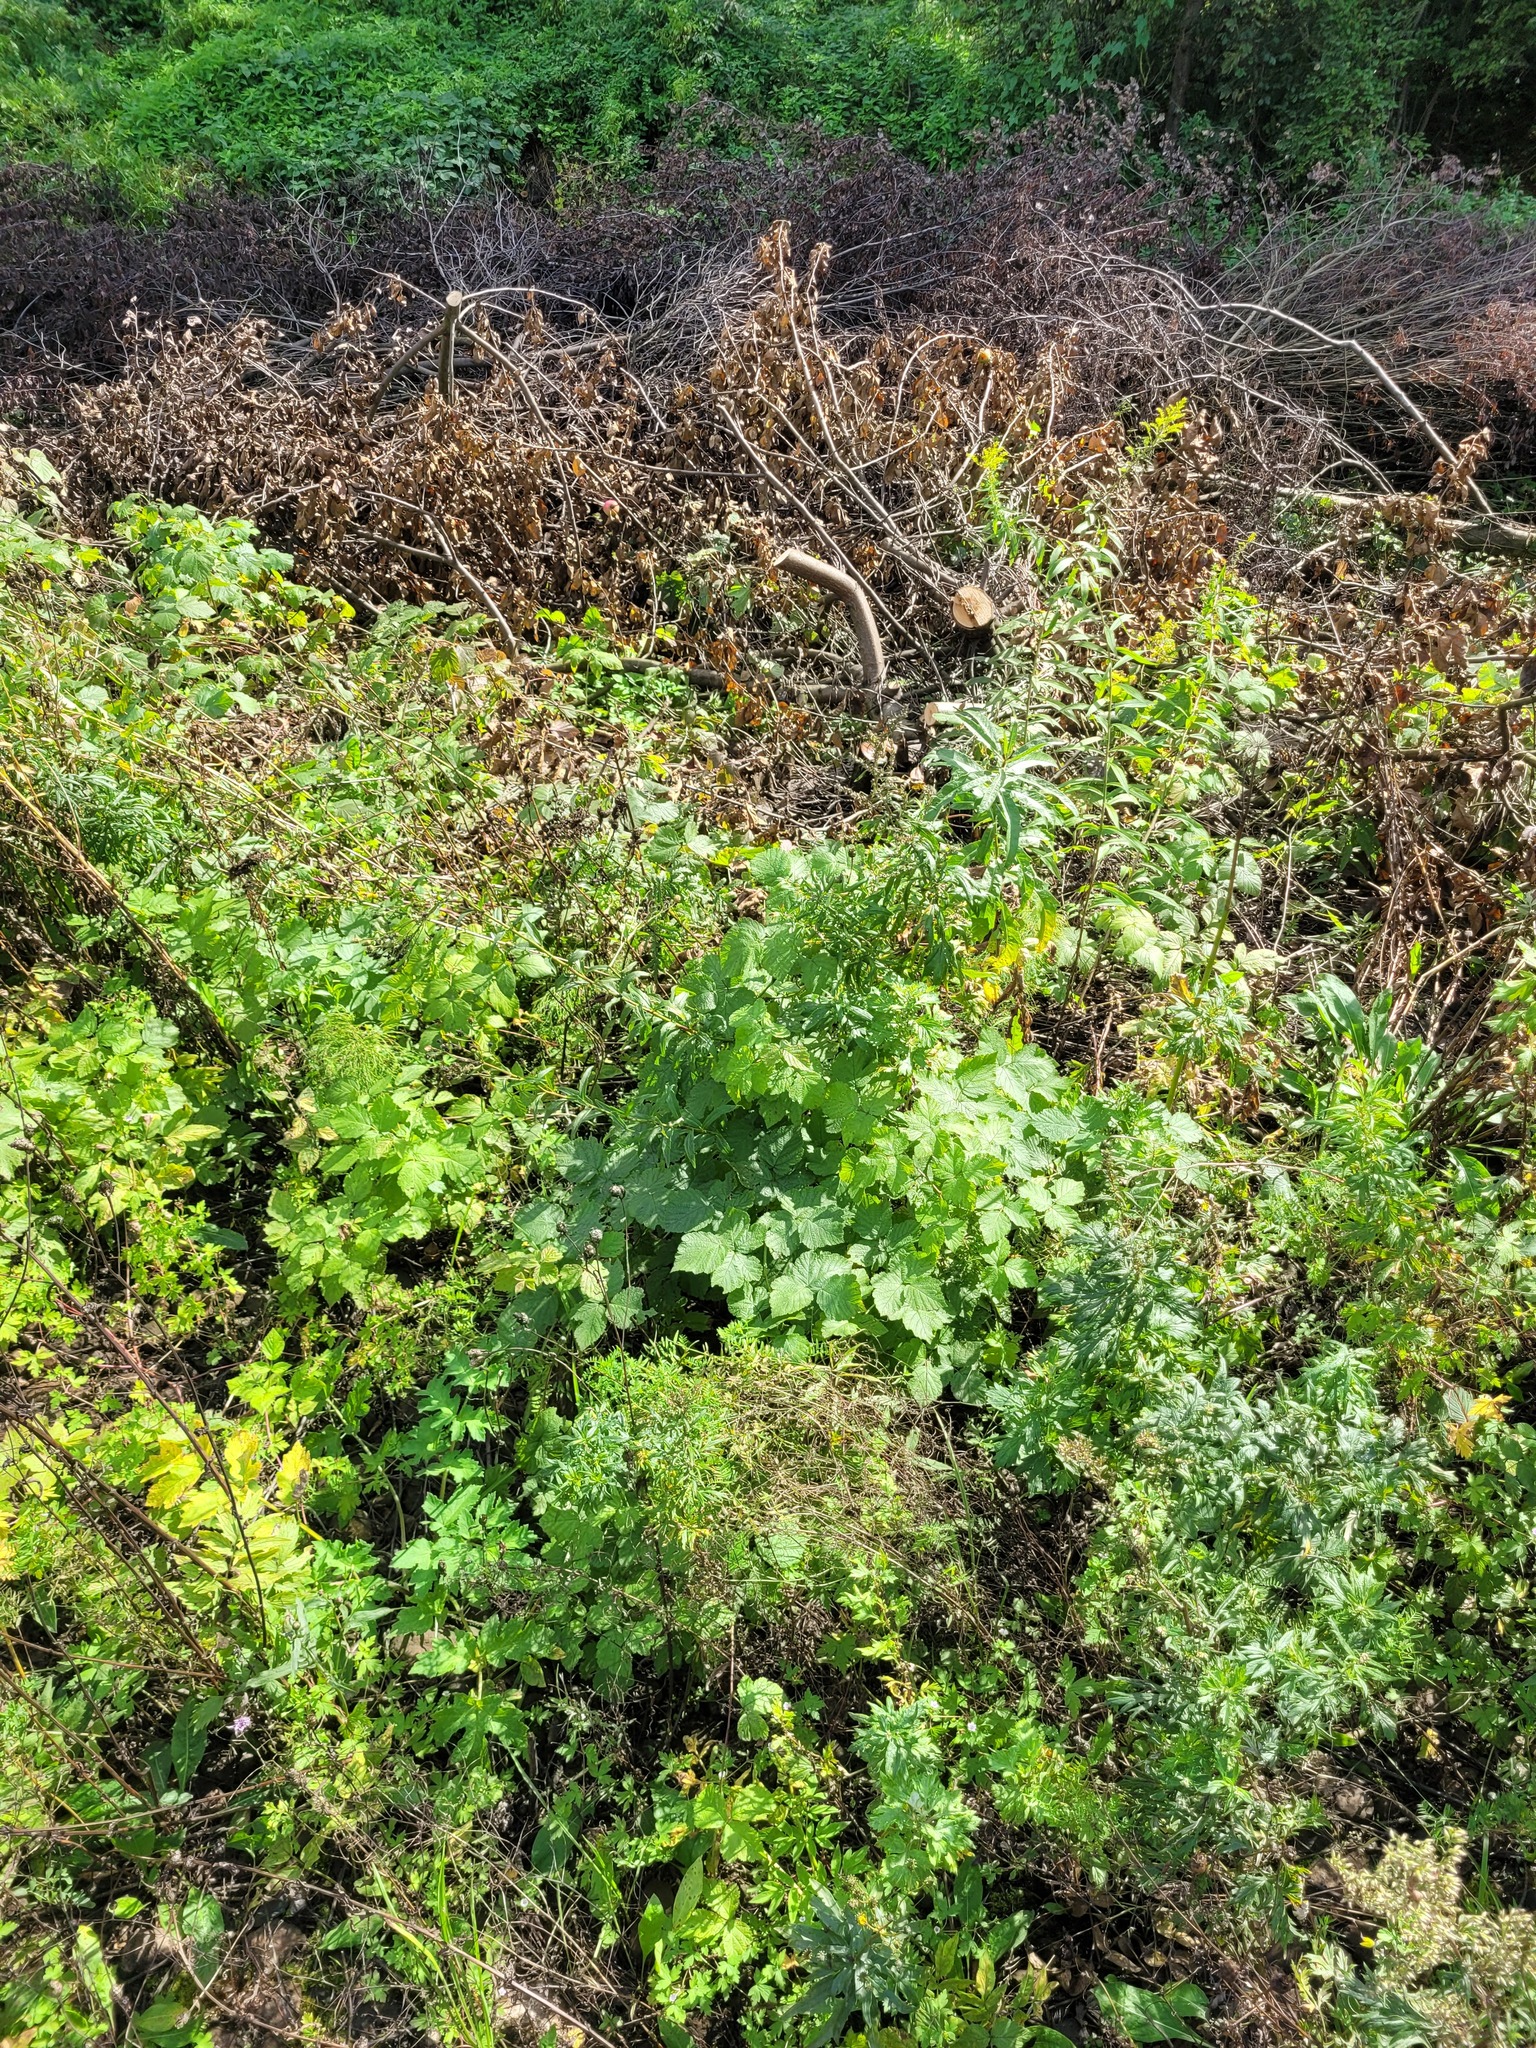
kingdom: Plantae
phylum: Tracheophyta
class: Magnoliopsida
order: Rosales
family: Rosaceae
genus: Rubus
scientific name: Rubus caesius
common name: Dewberry
